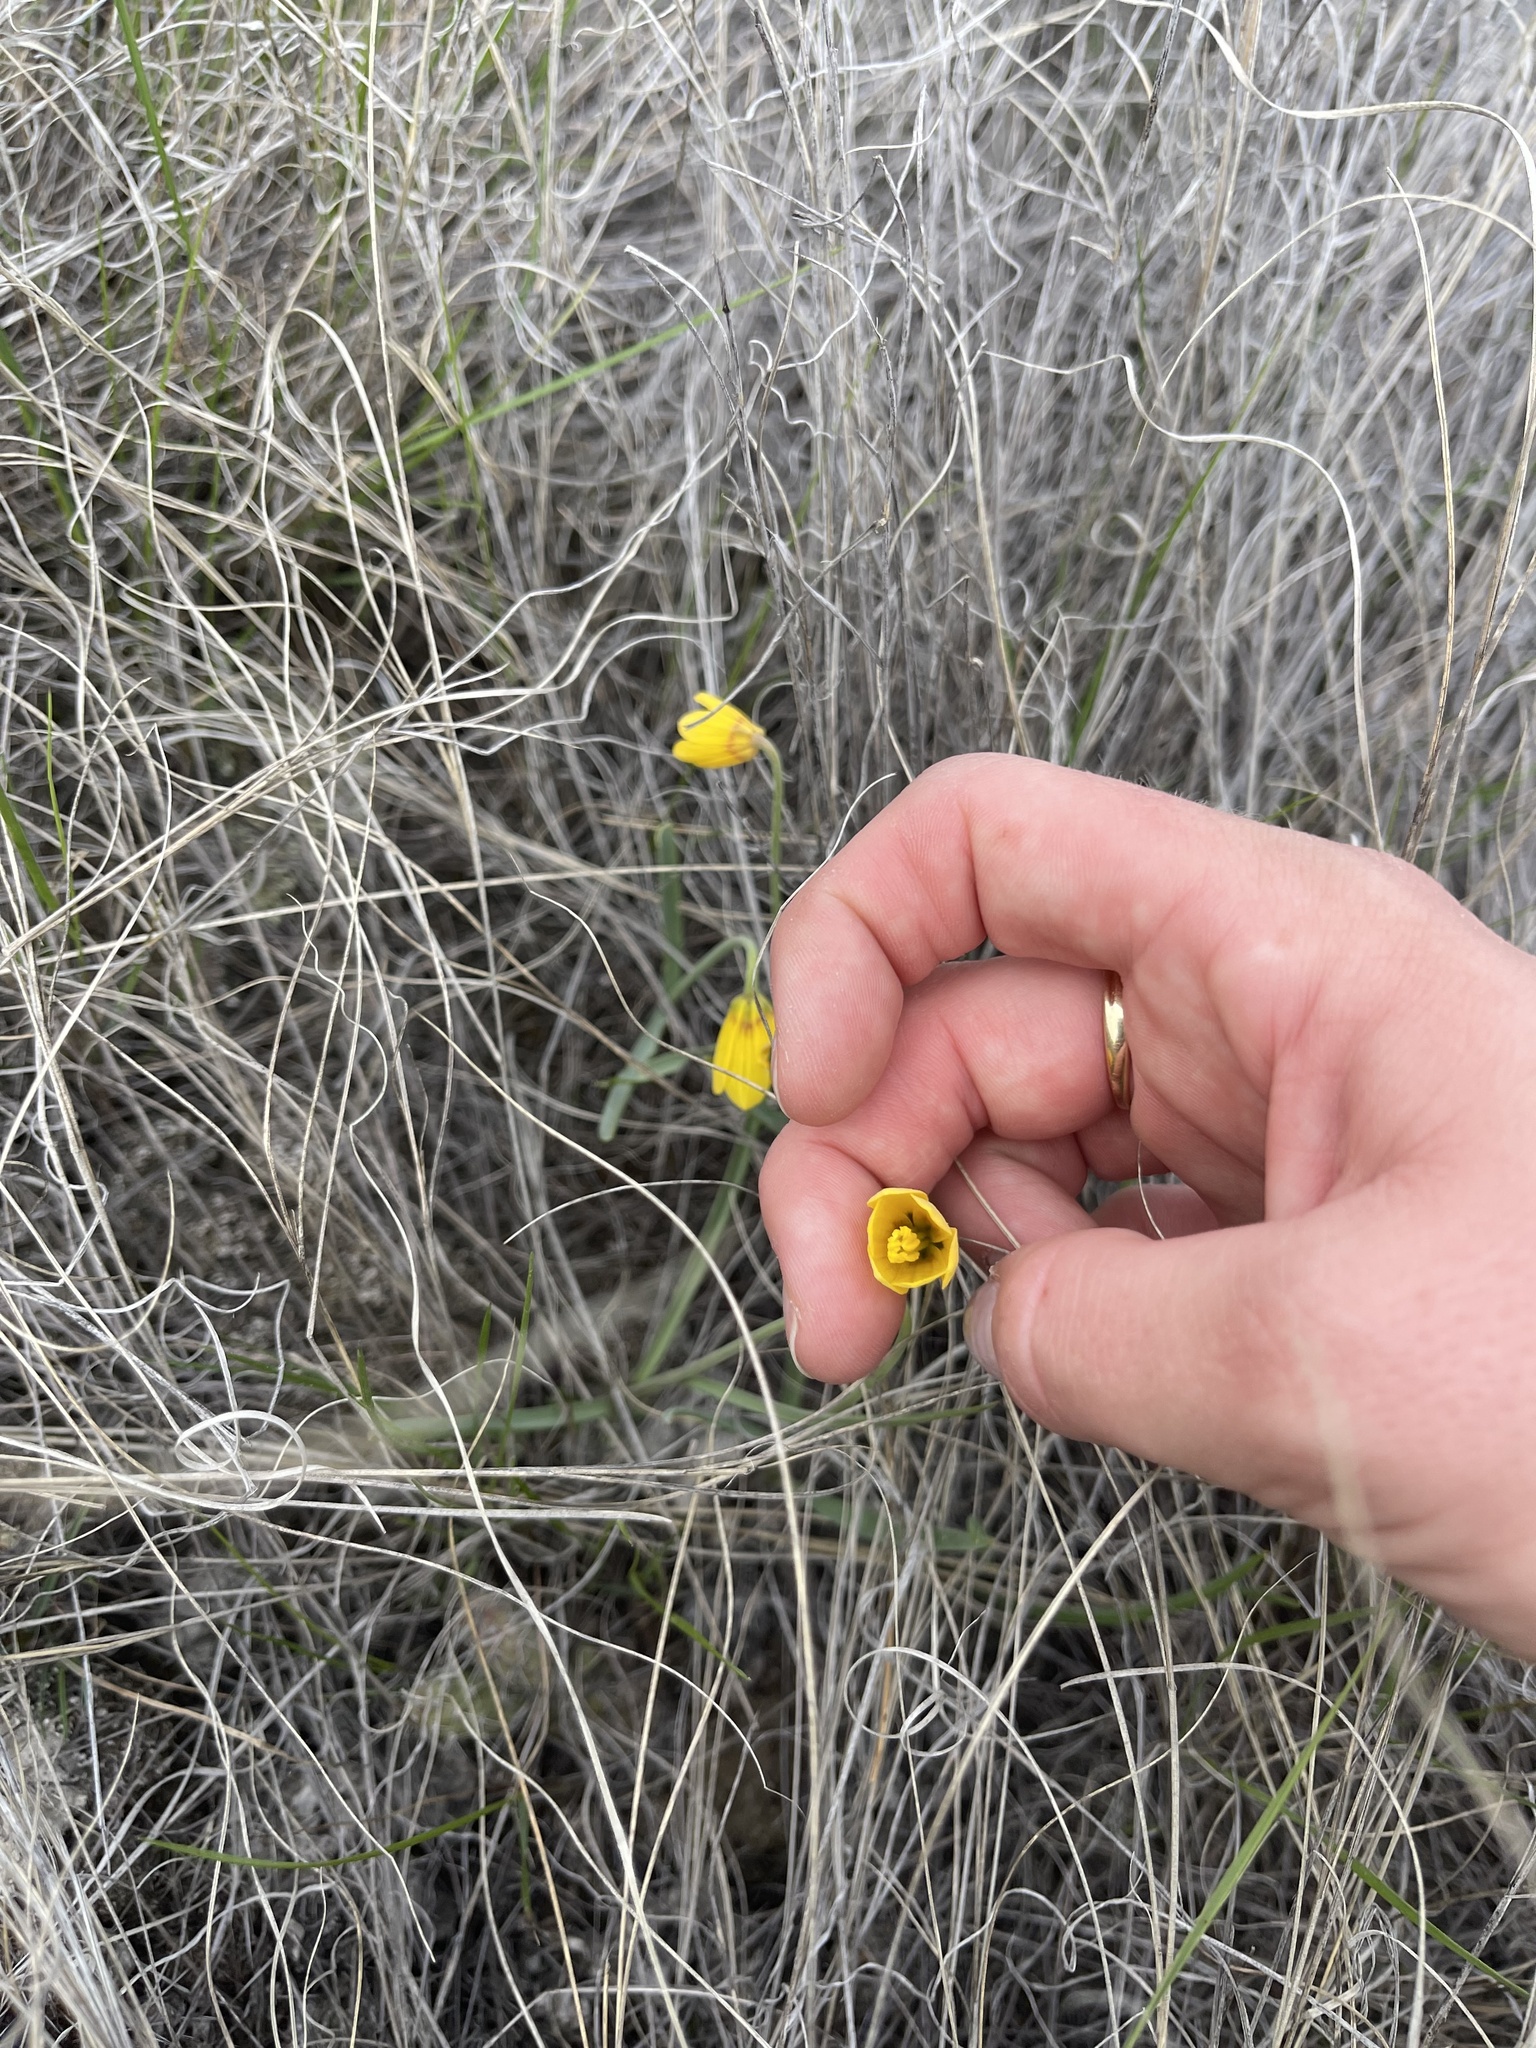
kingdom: Plantae
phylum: Tracheophyta
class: Liliopsida
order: Liliales
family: Liliaceae
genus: Fritillaria
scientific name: Fritillaria pudica
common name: Yellow fritillary
